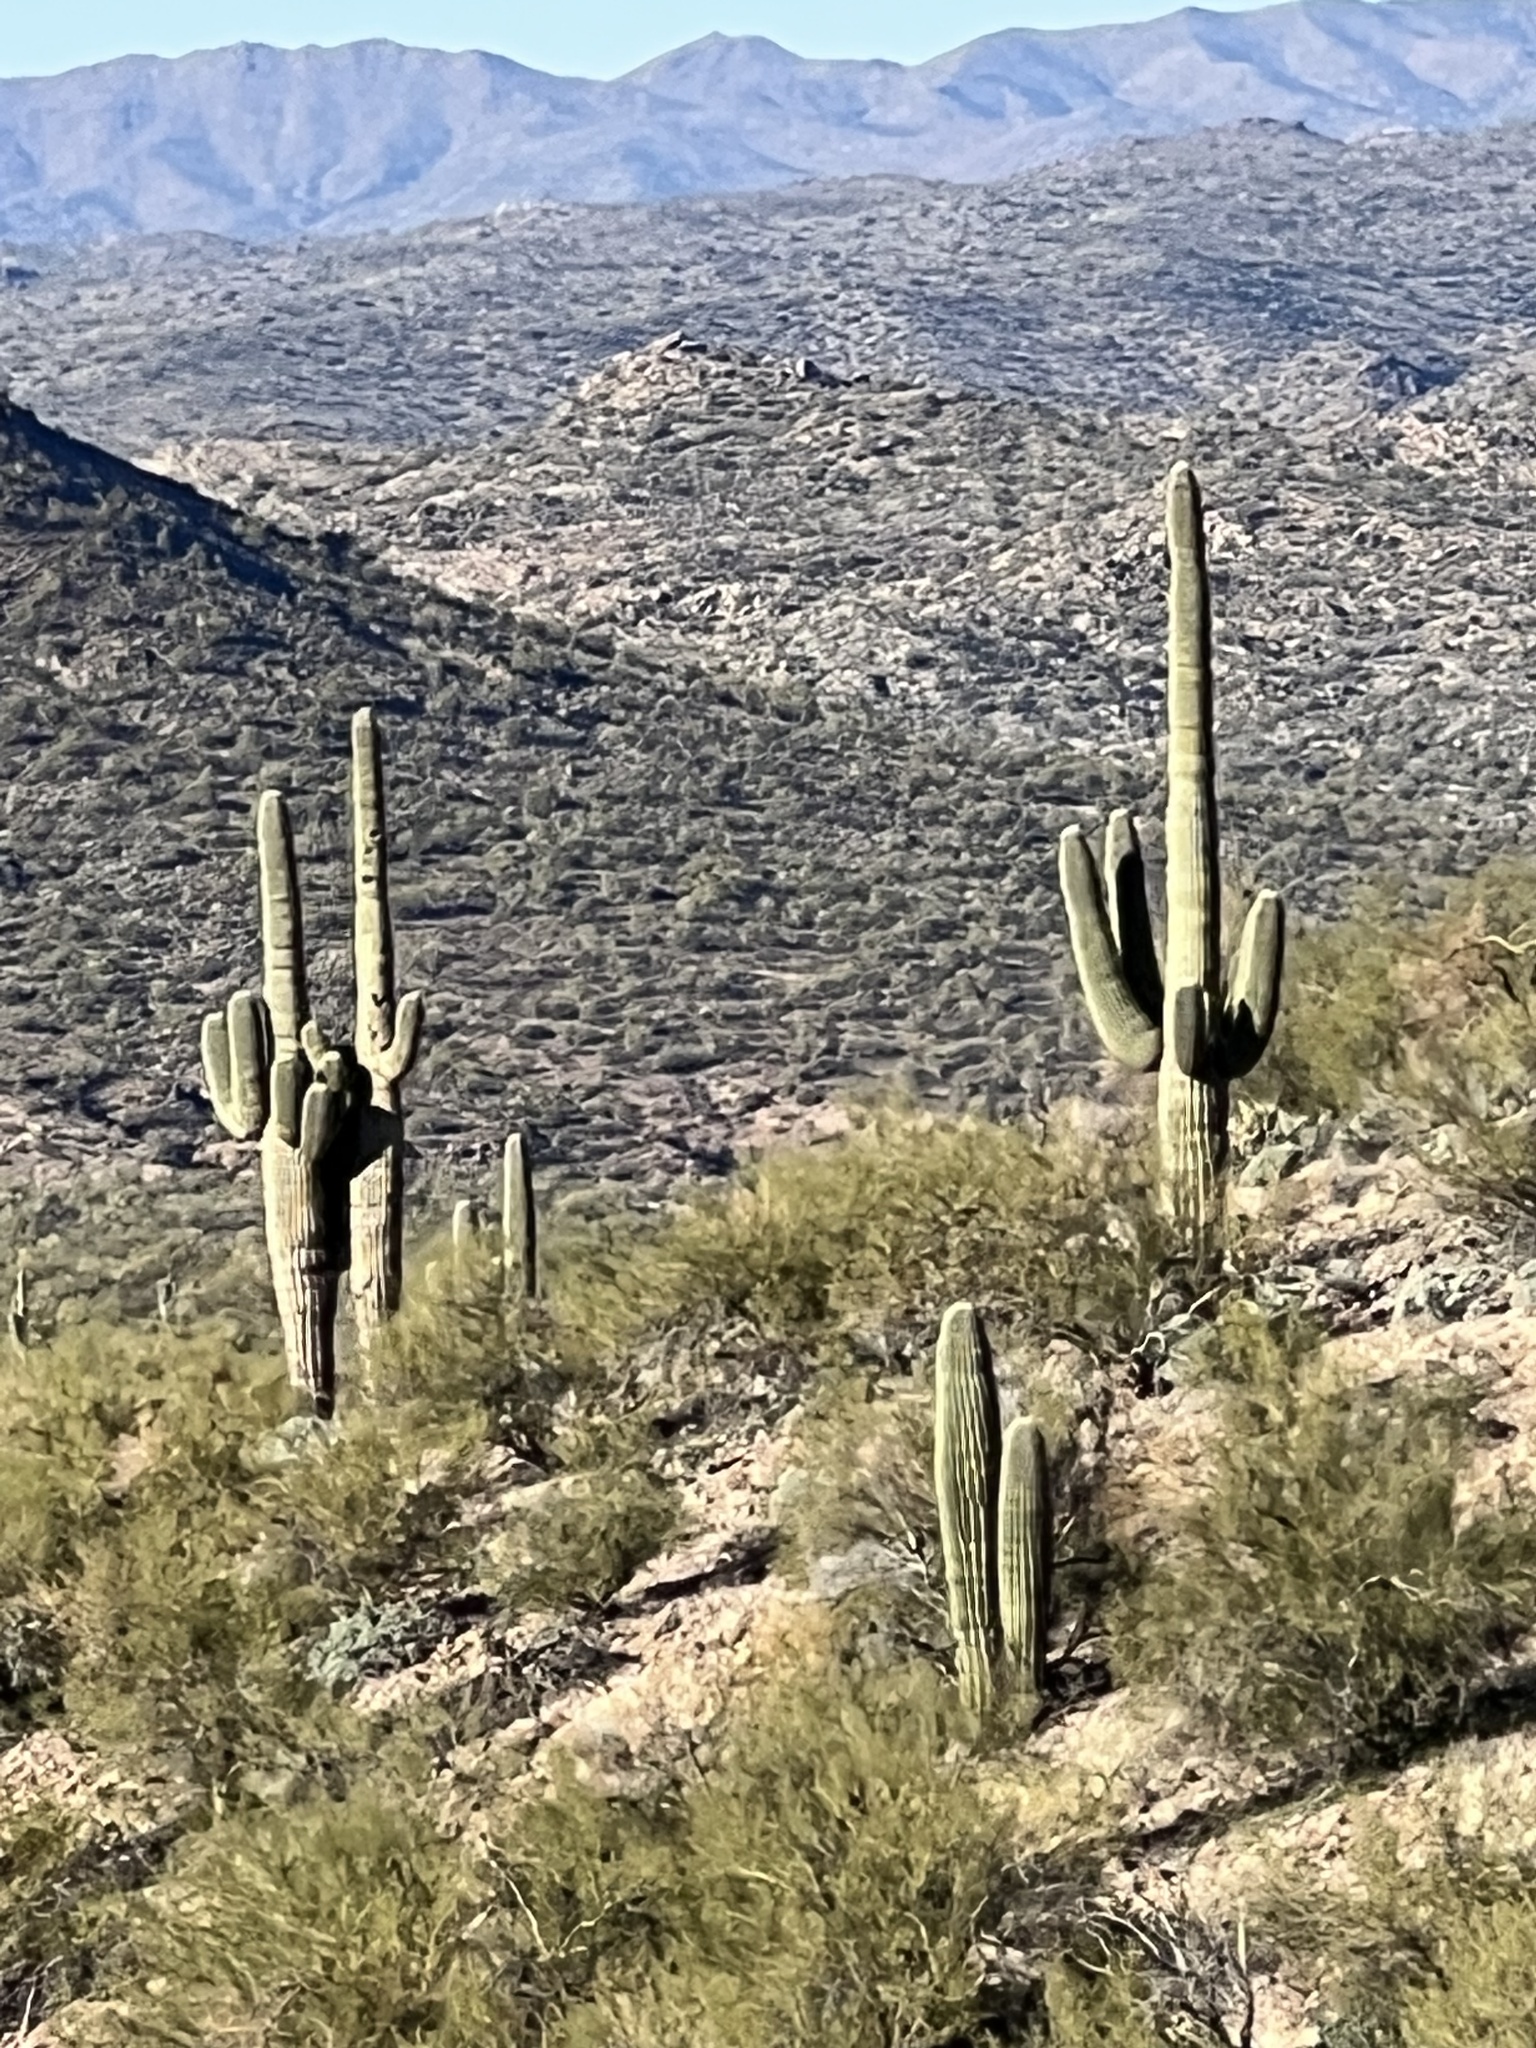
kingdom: Plantae
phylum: Tracheophyta
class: Magnoliopsida
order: Caryophyllales
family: Cactaceae
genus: Carnegiea
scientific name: Carnegiea gigantea
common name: Saguaro
